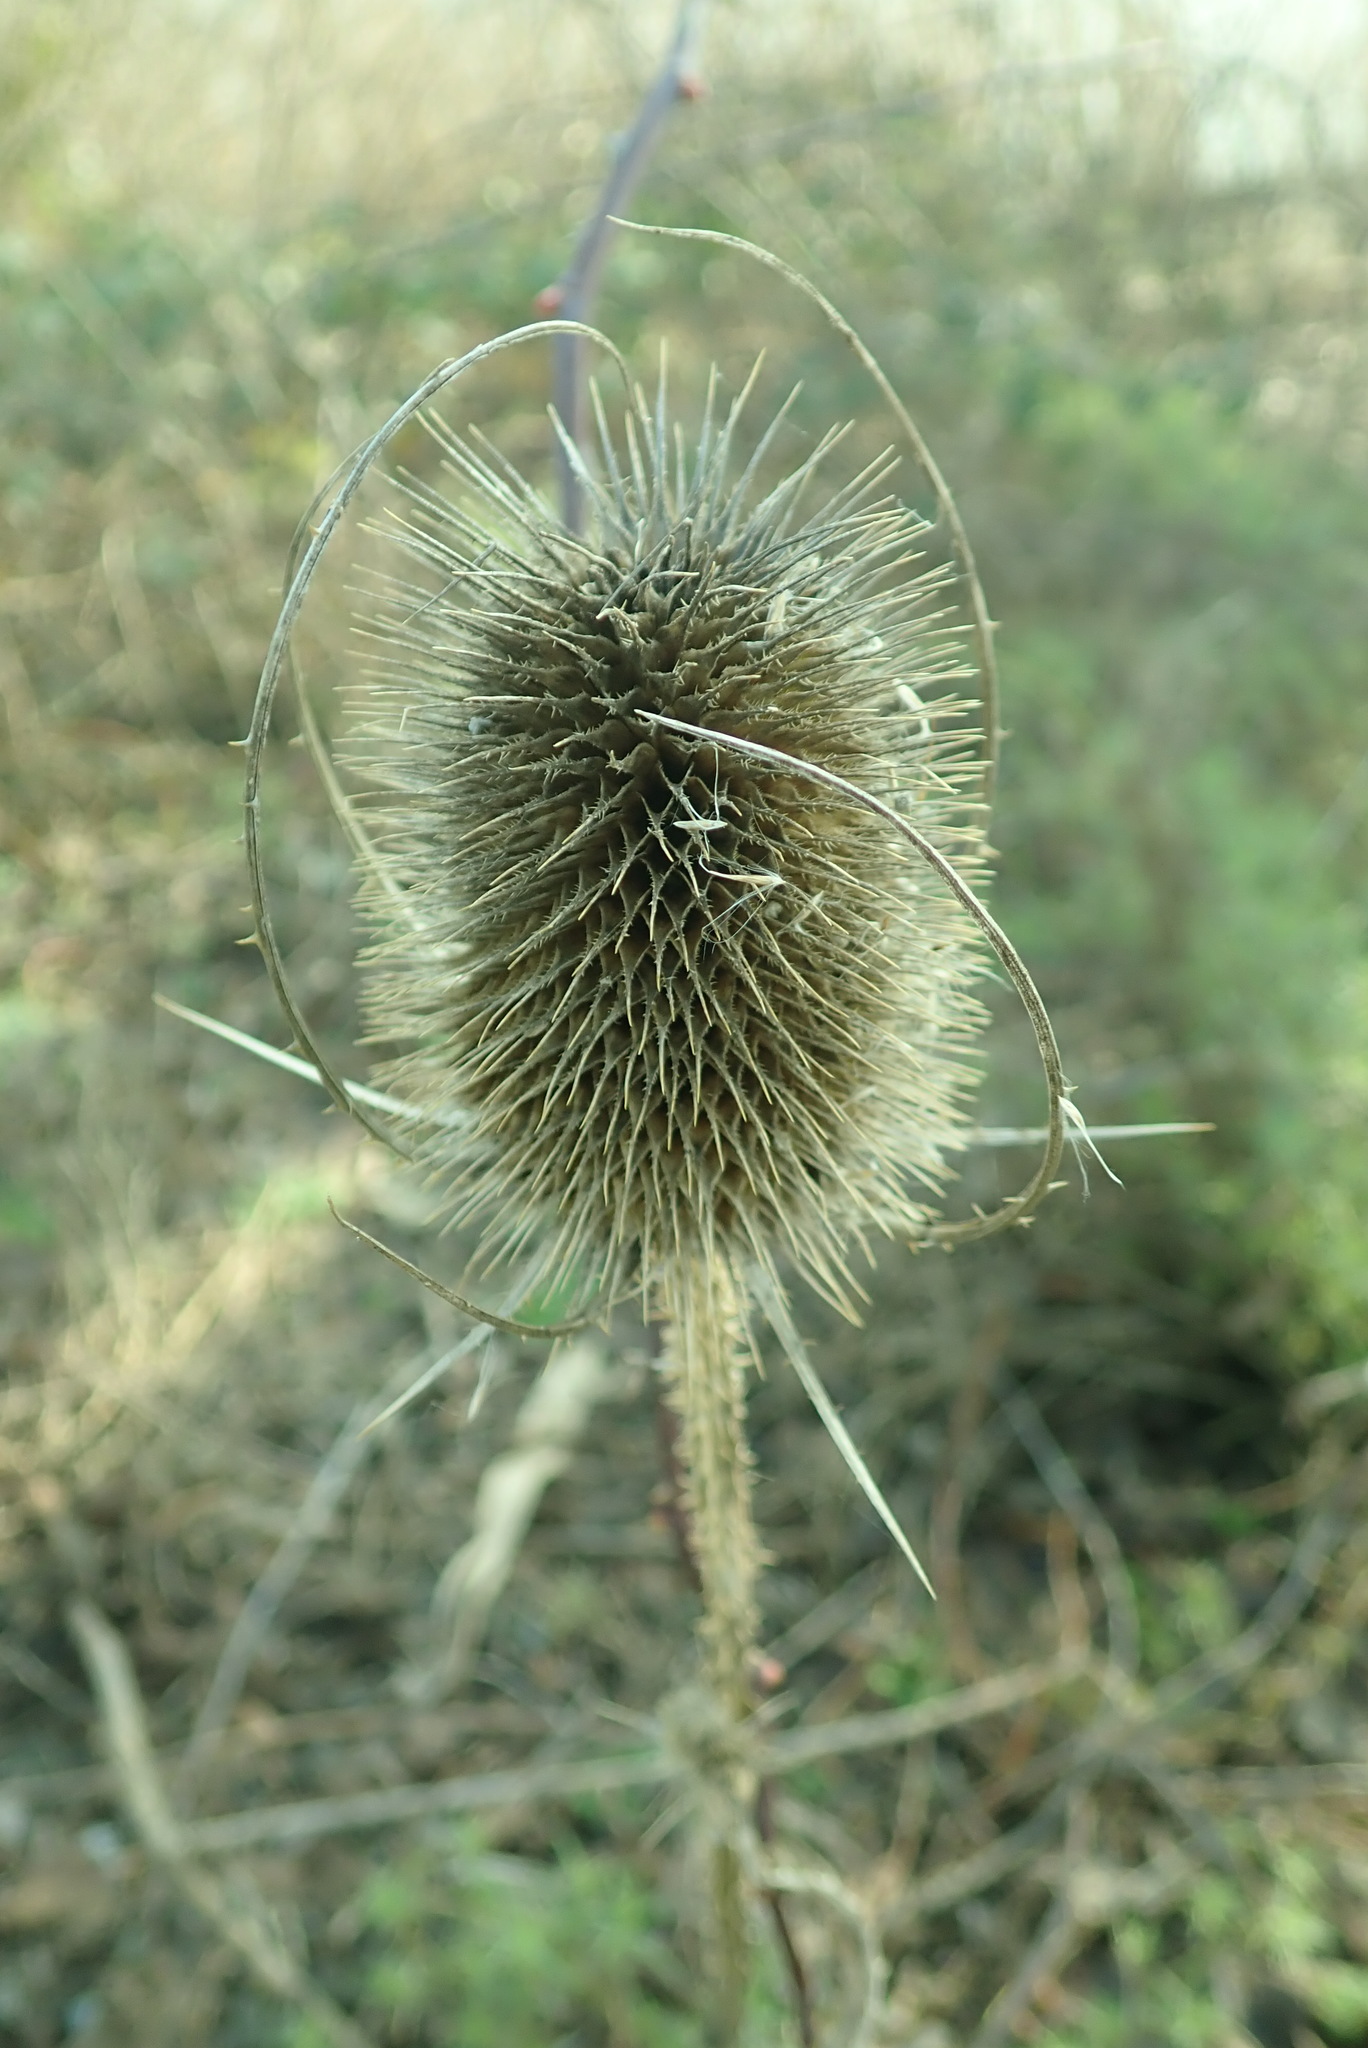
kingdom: Plantae
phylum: Tracheophyta
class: Magnoliopsida
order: Dipsacales
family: Caprifoliaceae
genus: Dipsacus
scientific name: Dipsacus fullonum
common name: Teasel
